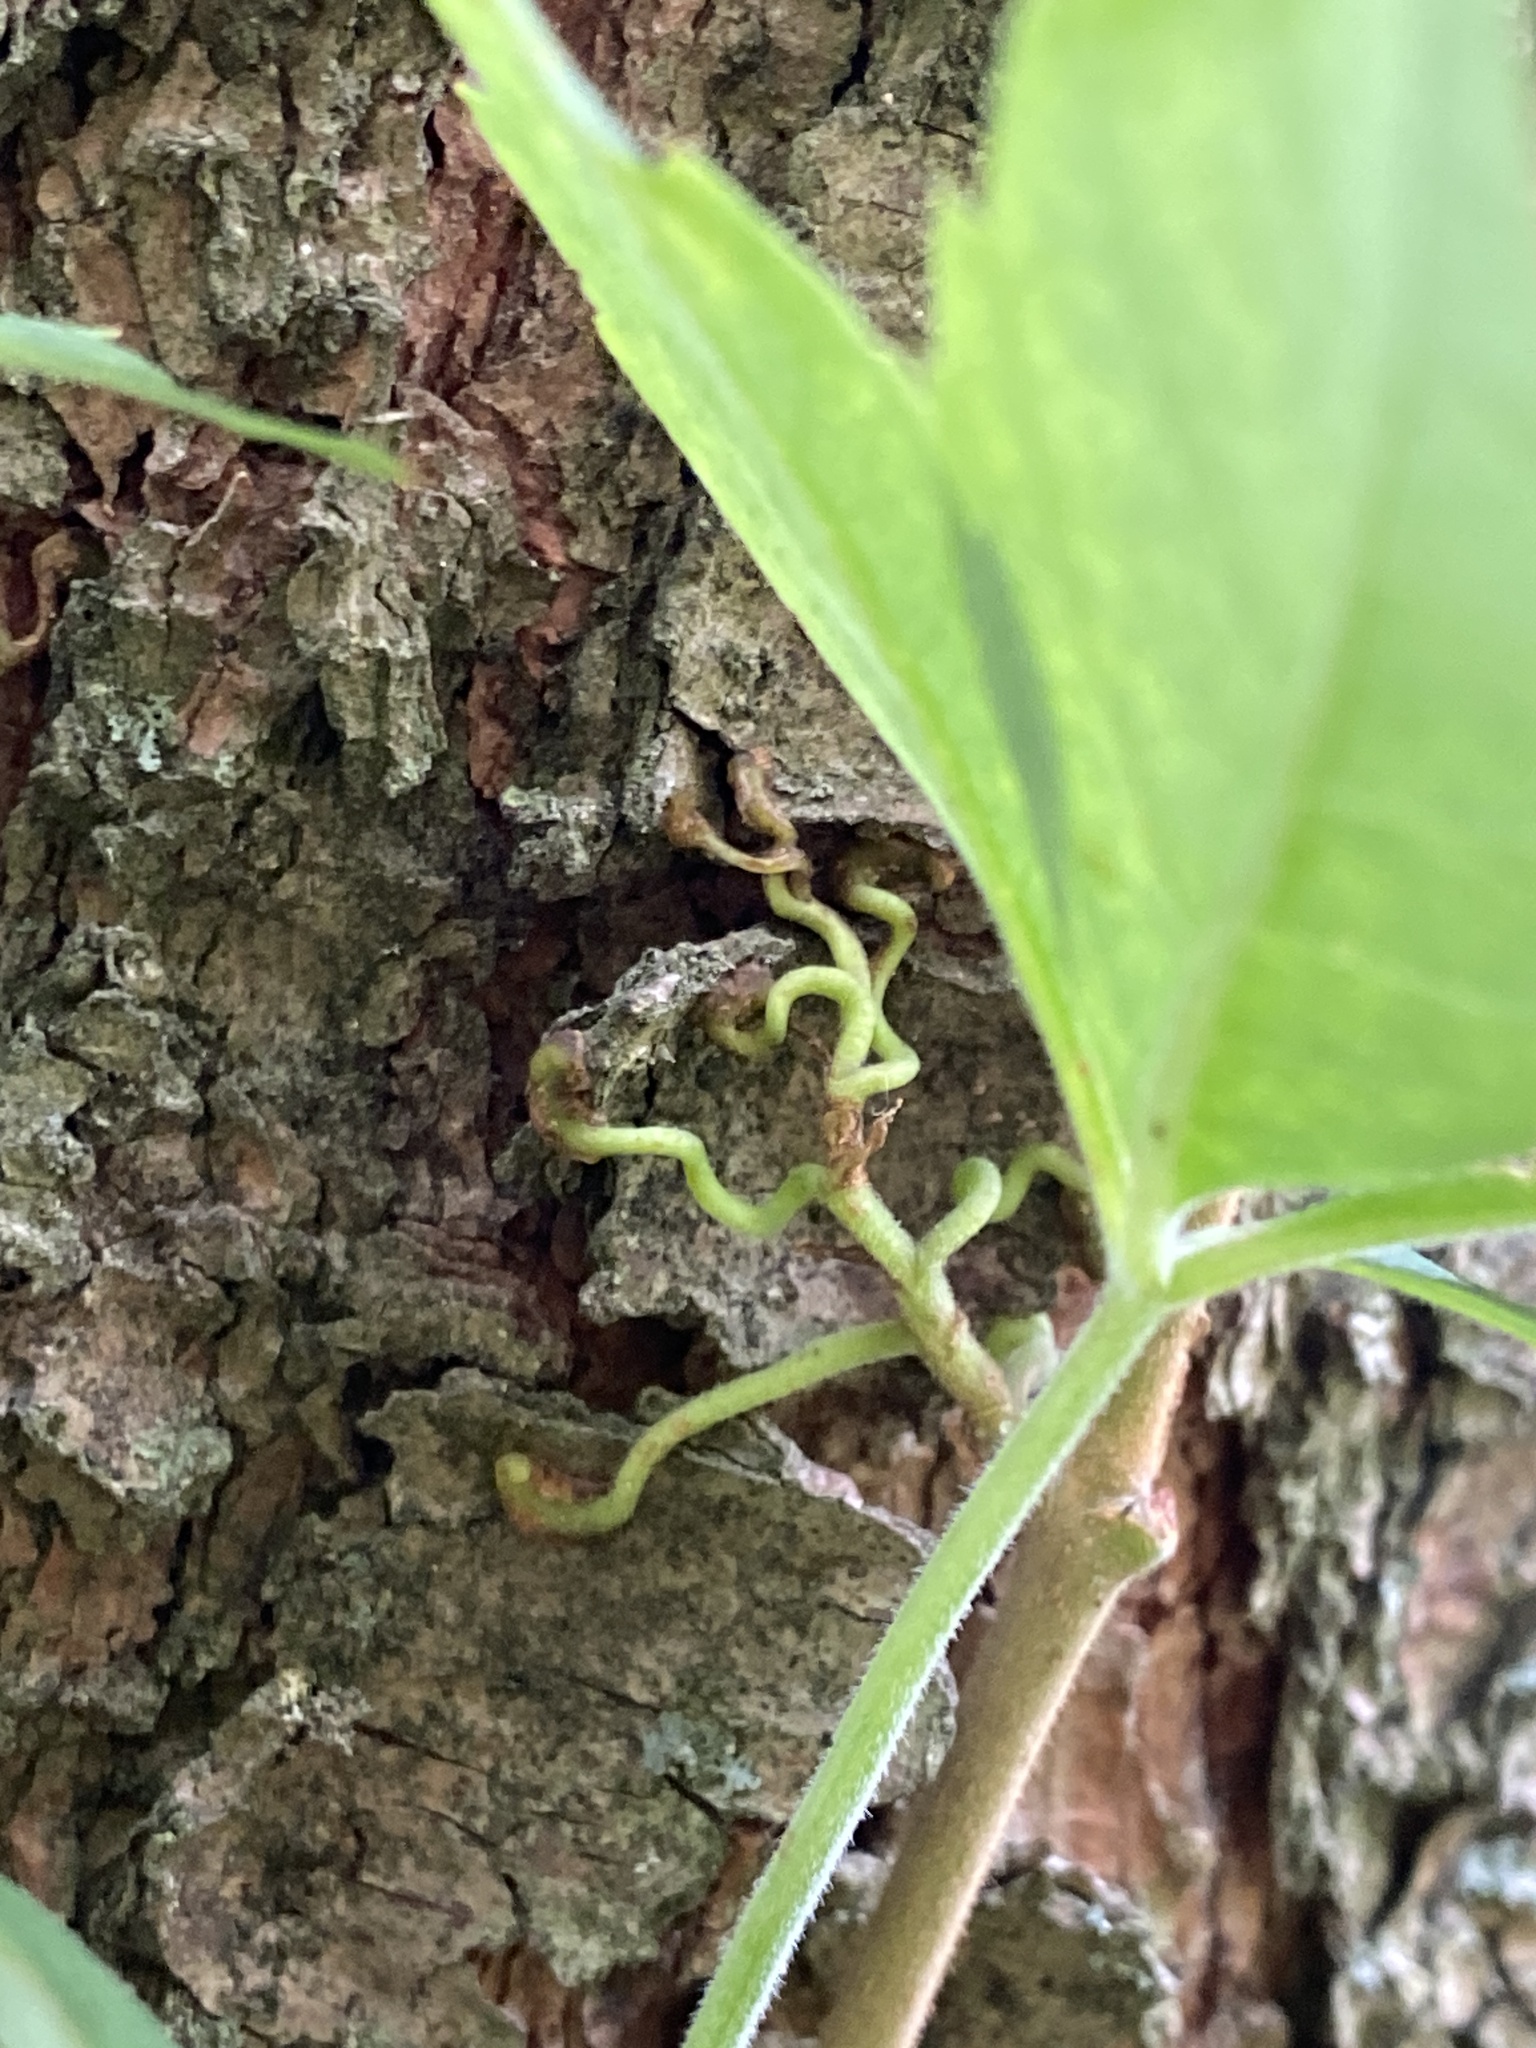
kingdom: Plantae
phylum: Tracheophyta
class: Magnoliopsida
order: Vitales
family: Vitaceae
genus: Parthenocissus
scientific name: Parthenocissus quinquefolia
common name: Virginia-creeper
